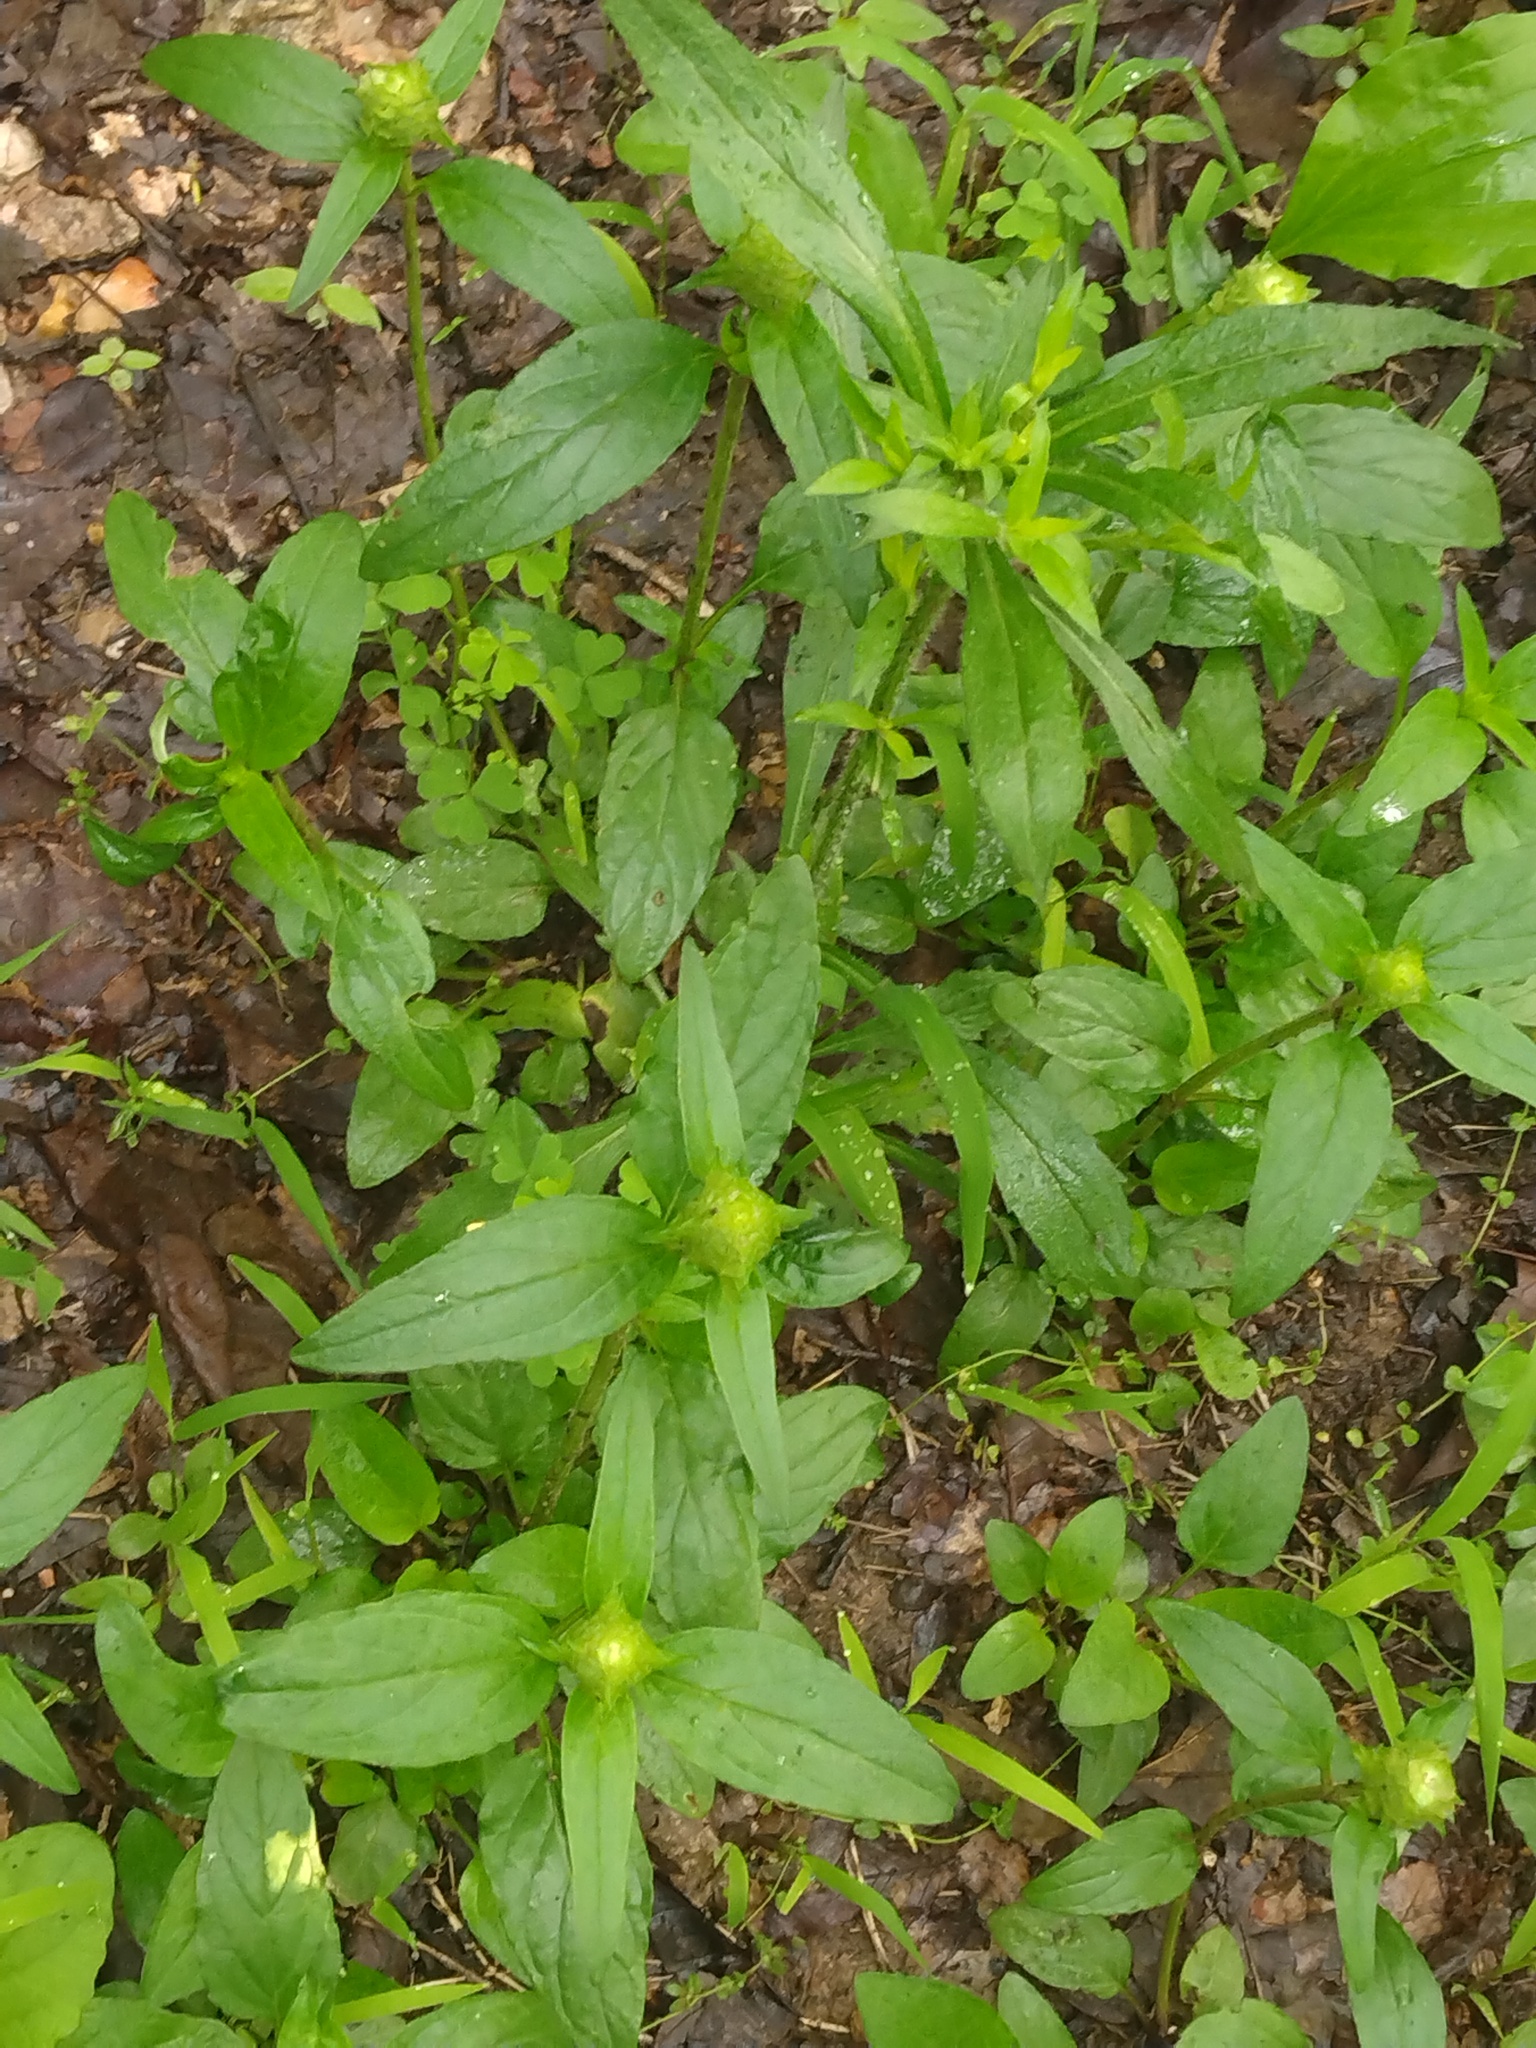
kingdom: Plantae
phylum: Tracheophyta
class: Magnoliopsida
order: Lamiales
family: Lamiaceae
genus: Prunella
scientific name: Prunella vulgaris
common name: Heal-all
